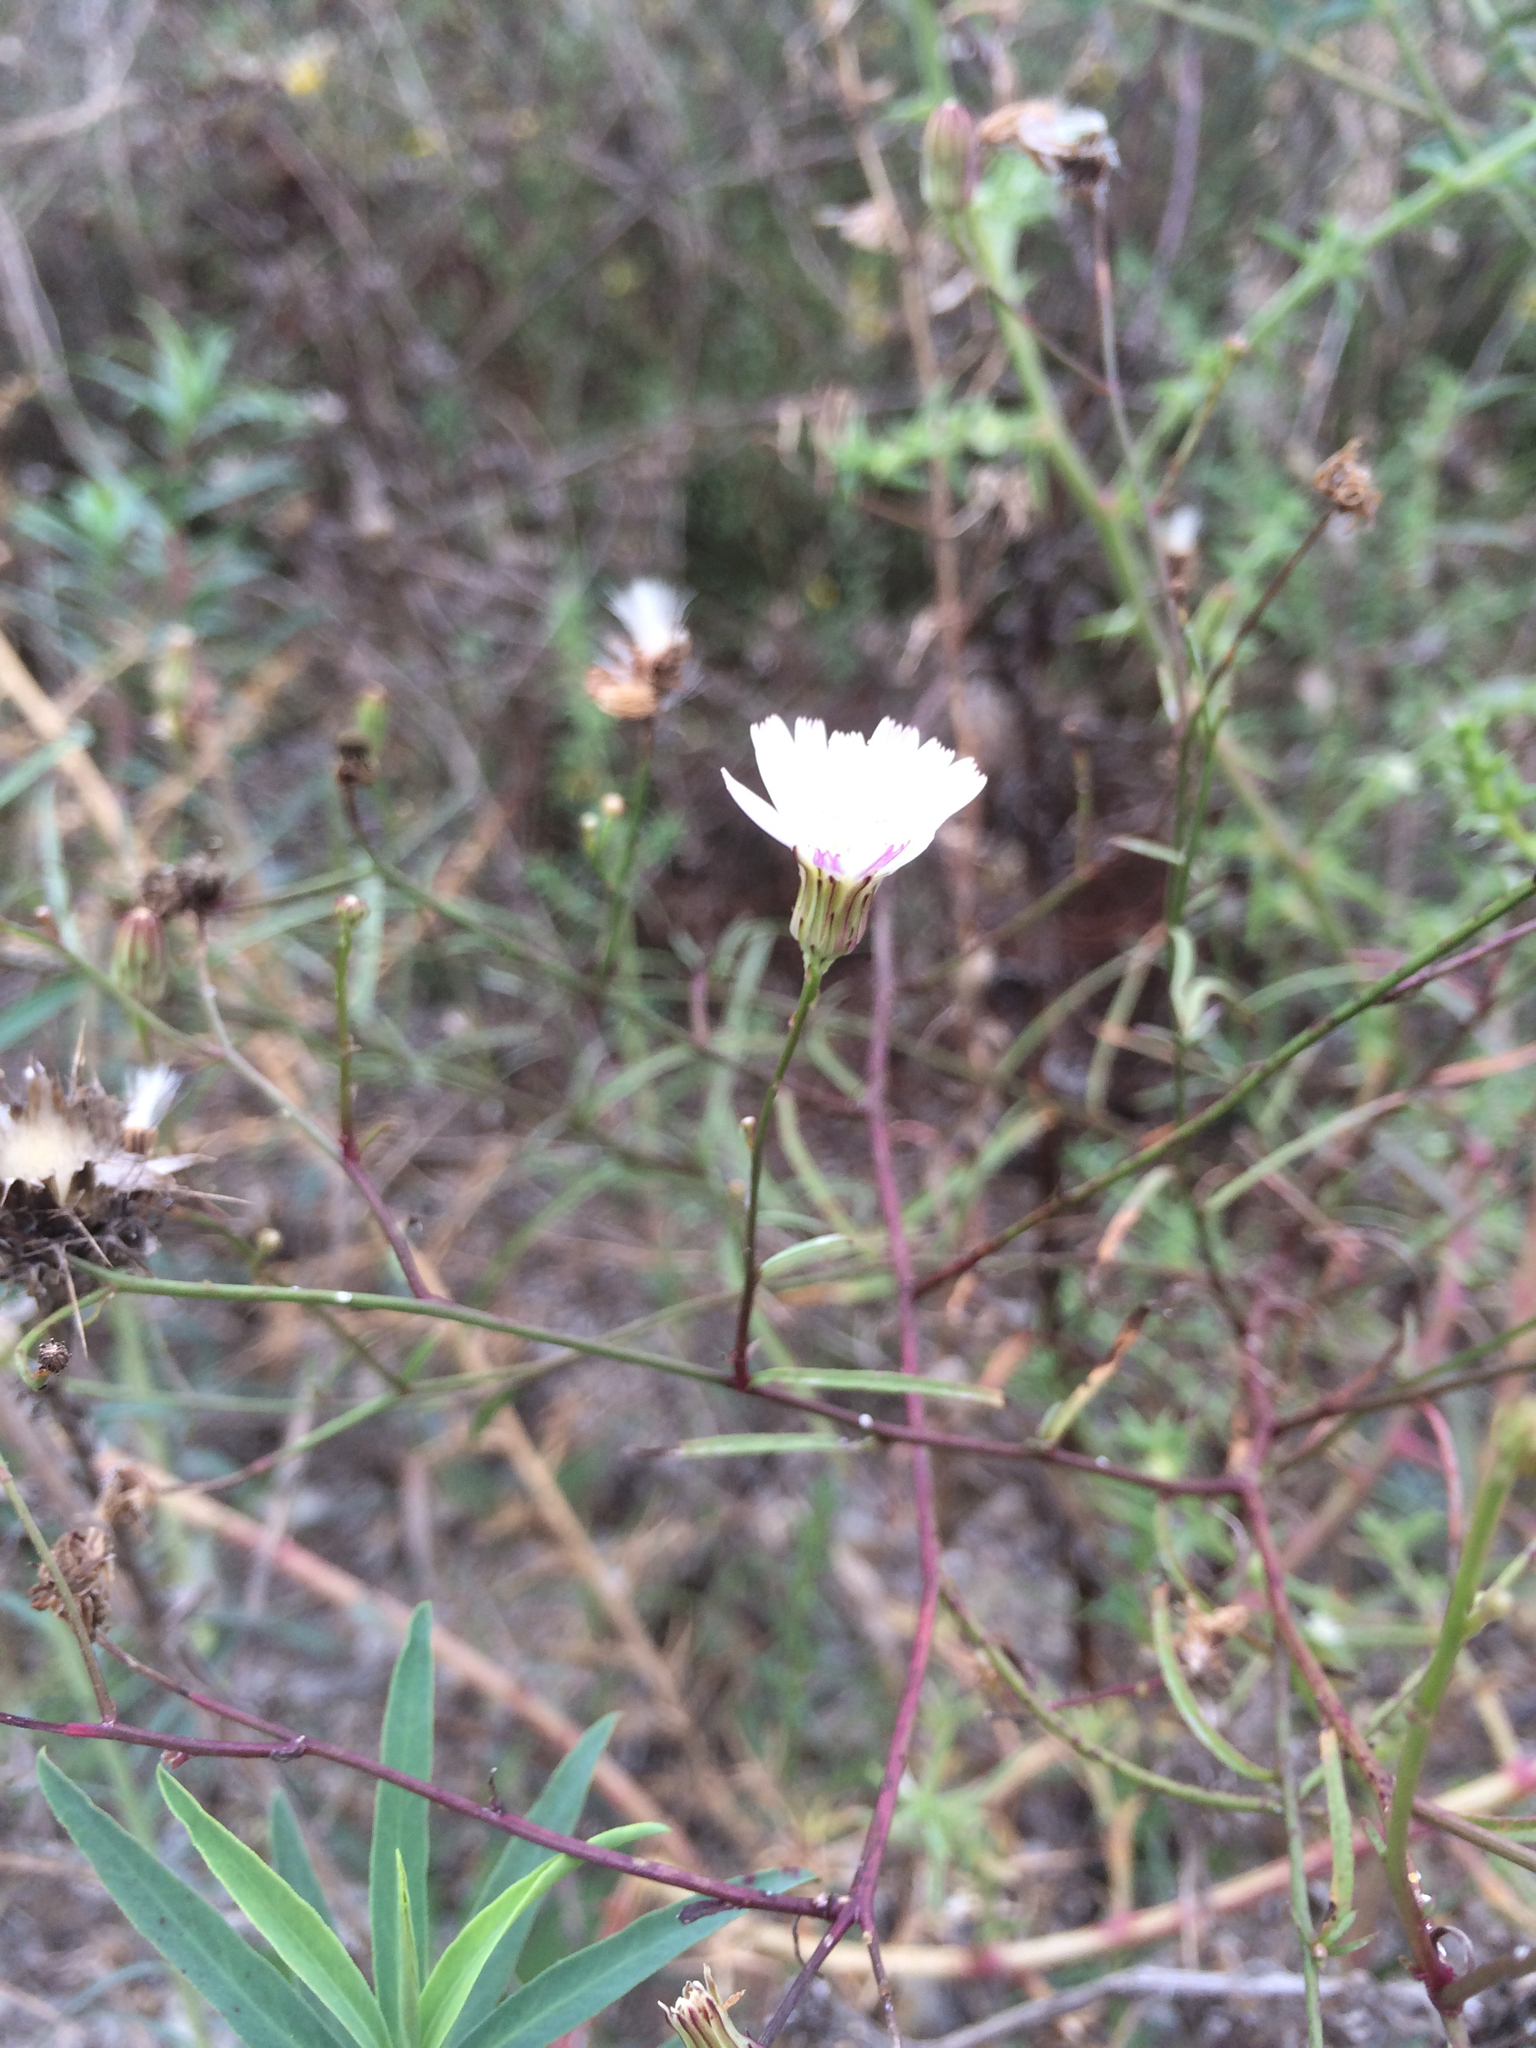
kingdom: Plantae
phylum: Tracheophyta
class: Magnoliopsida
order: Asterales
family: Asteraceae
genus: Malacothrix
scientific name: Malacothrix saxatilis
